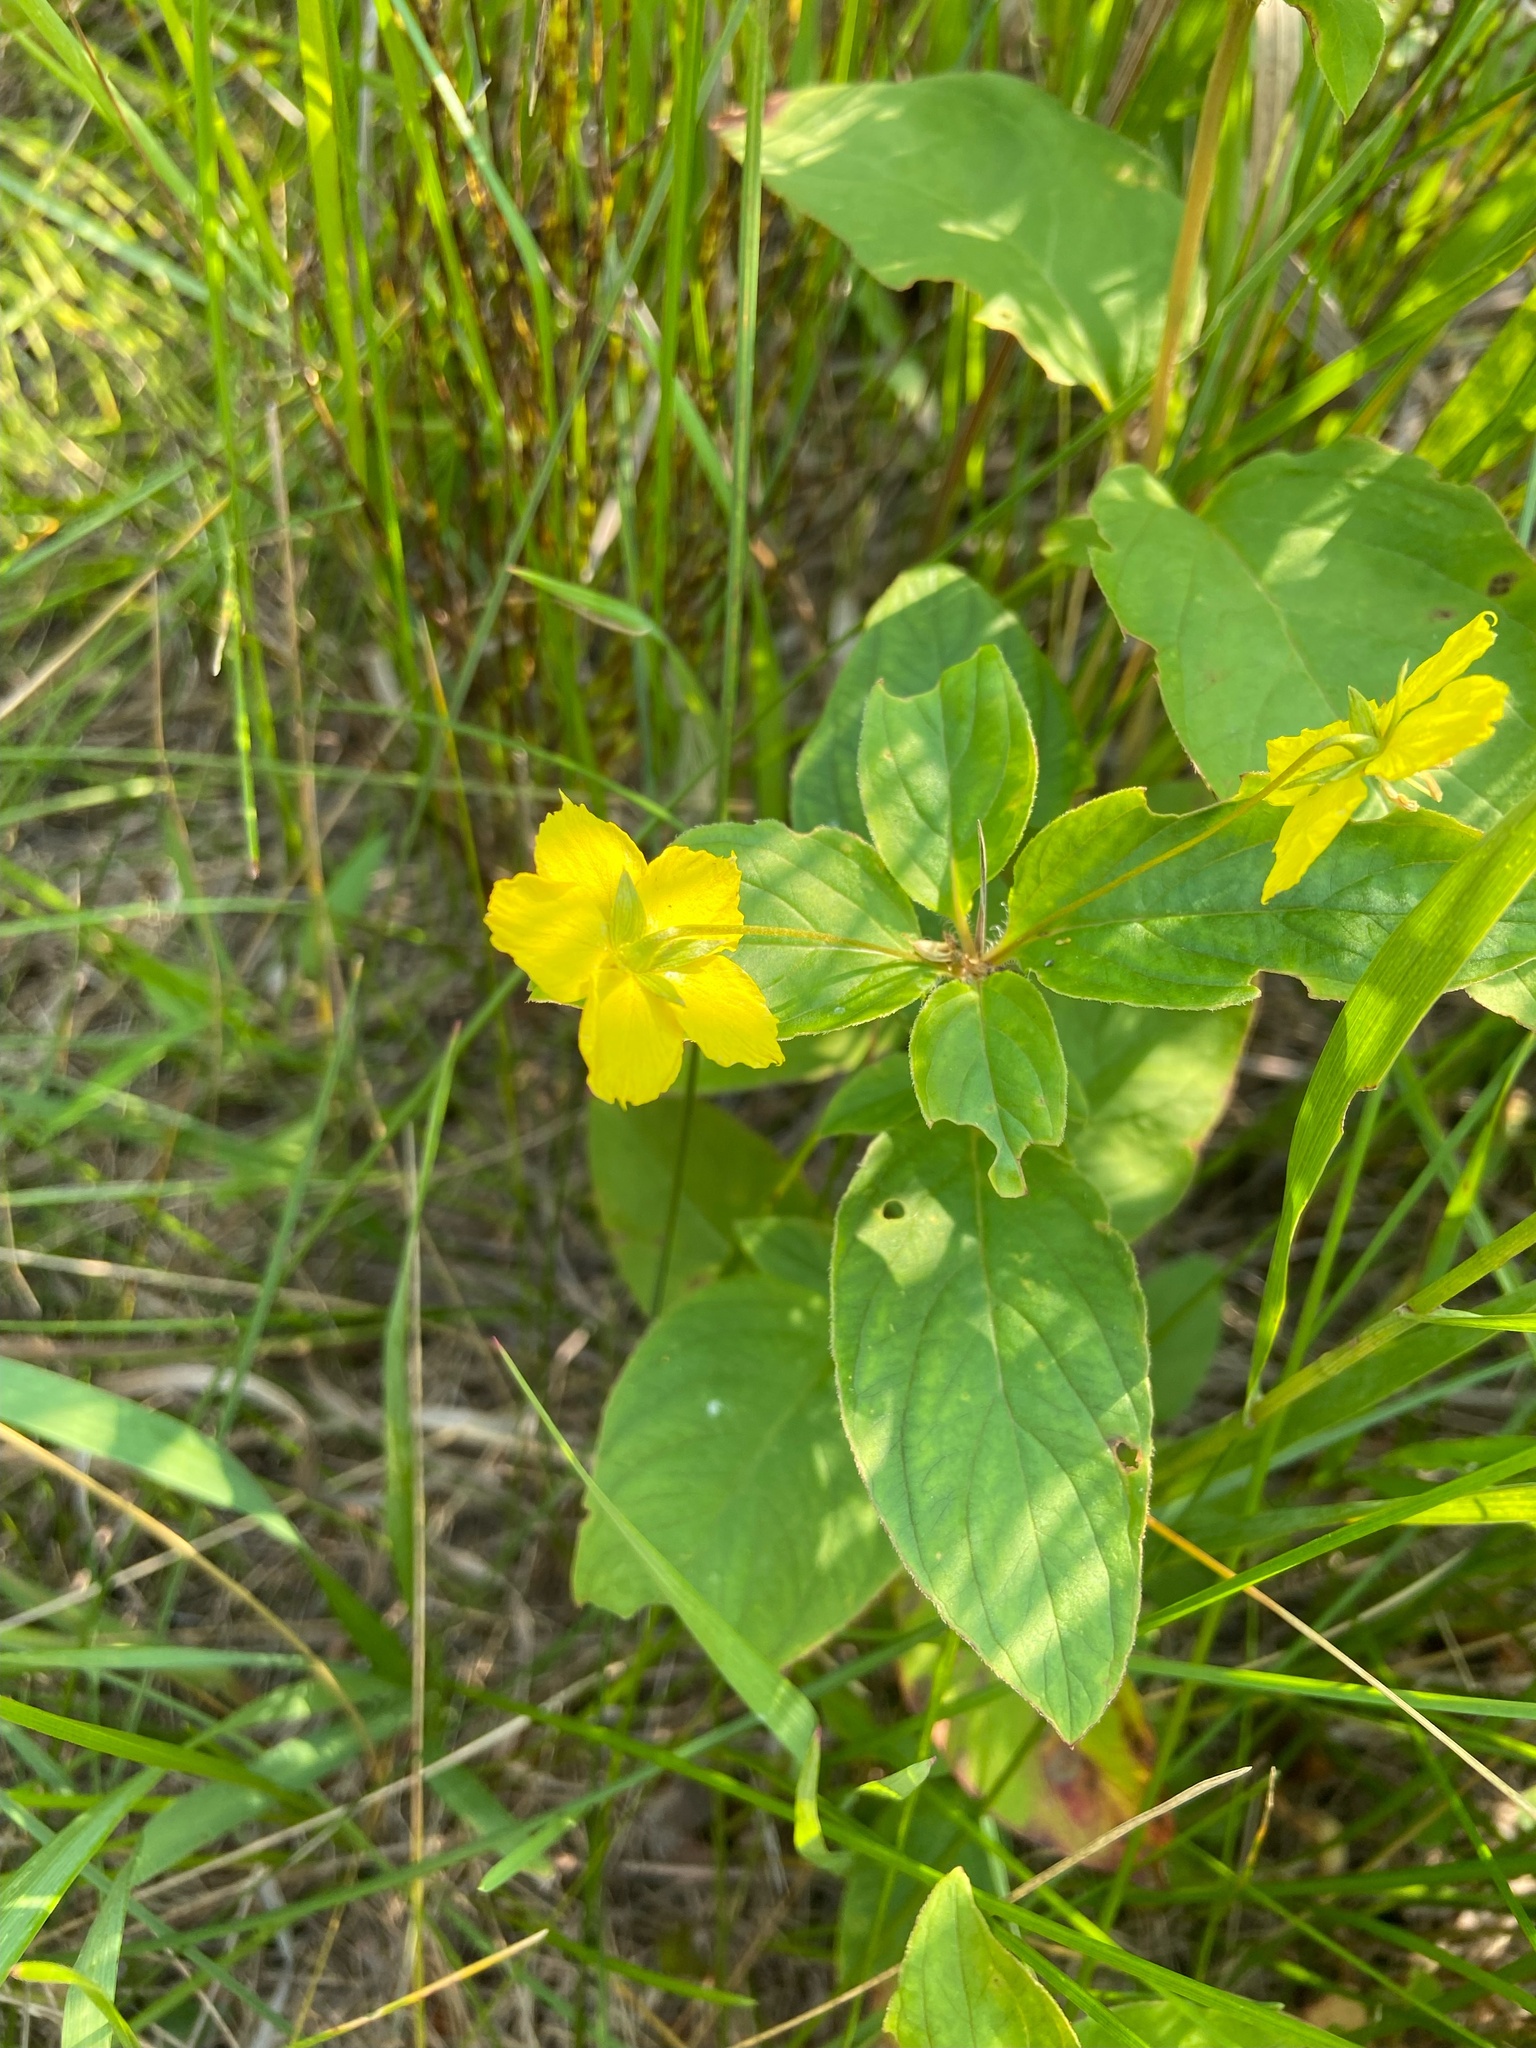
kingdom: Plantae
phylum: Tracheophyta
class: Magnoliopsida
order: Ericales
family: Primulaceae
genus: Lysimachia
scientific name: Lysimachia ciliata
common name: Fringed loosestrife
